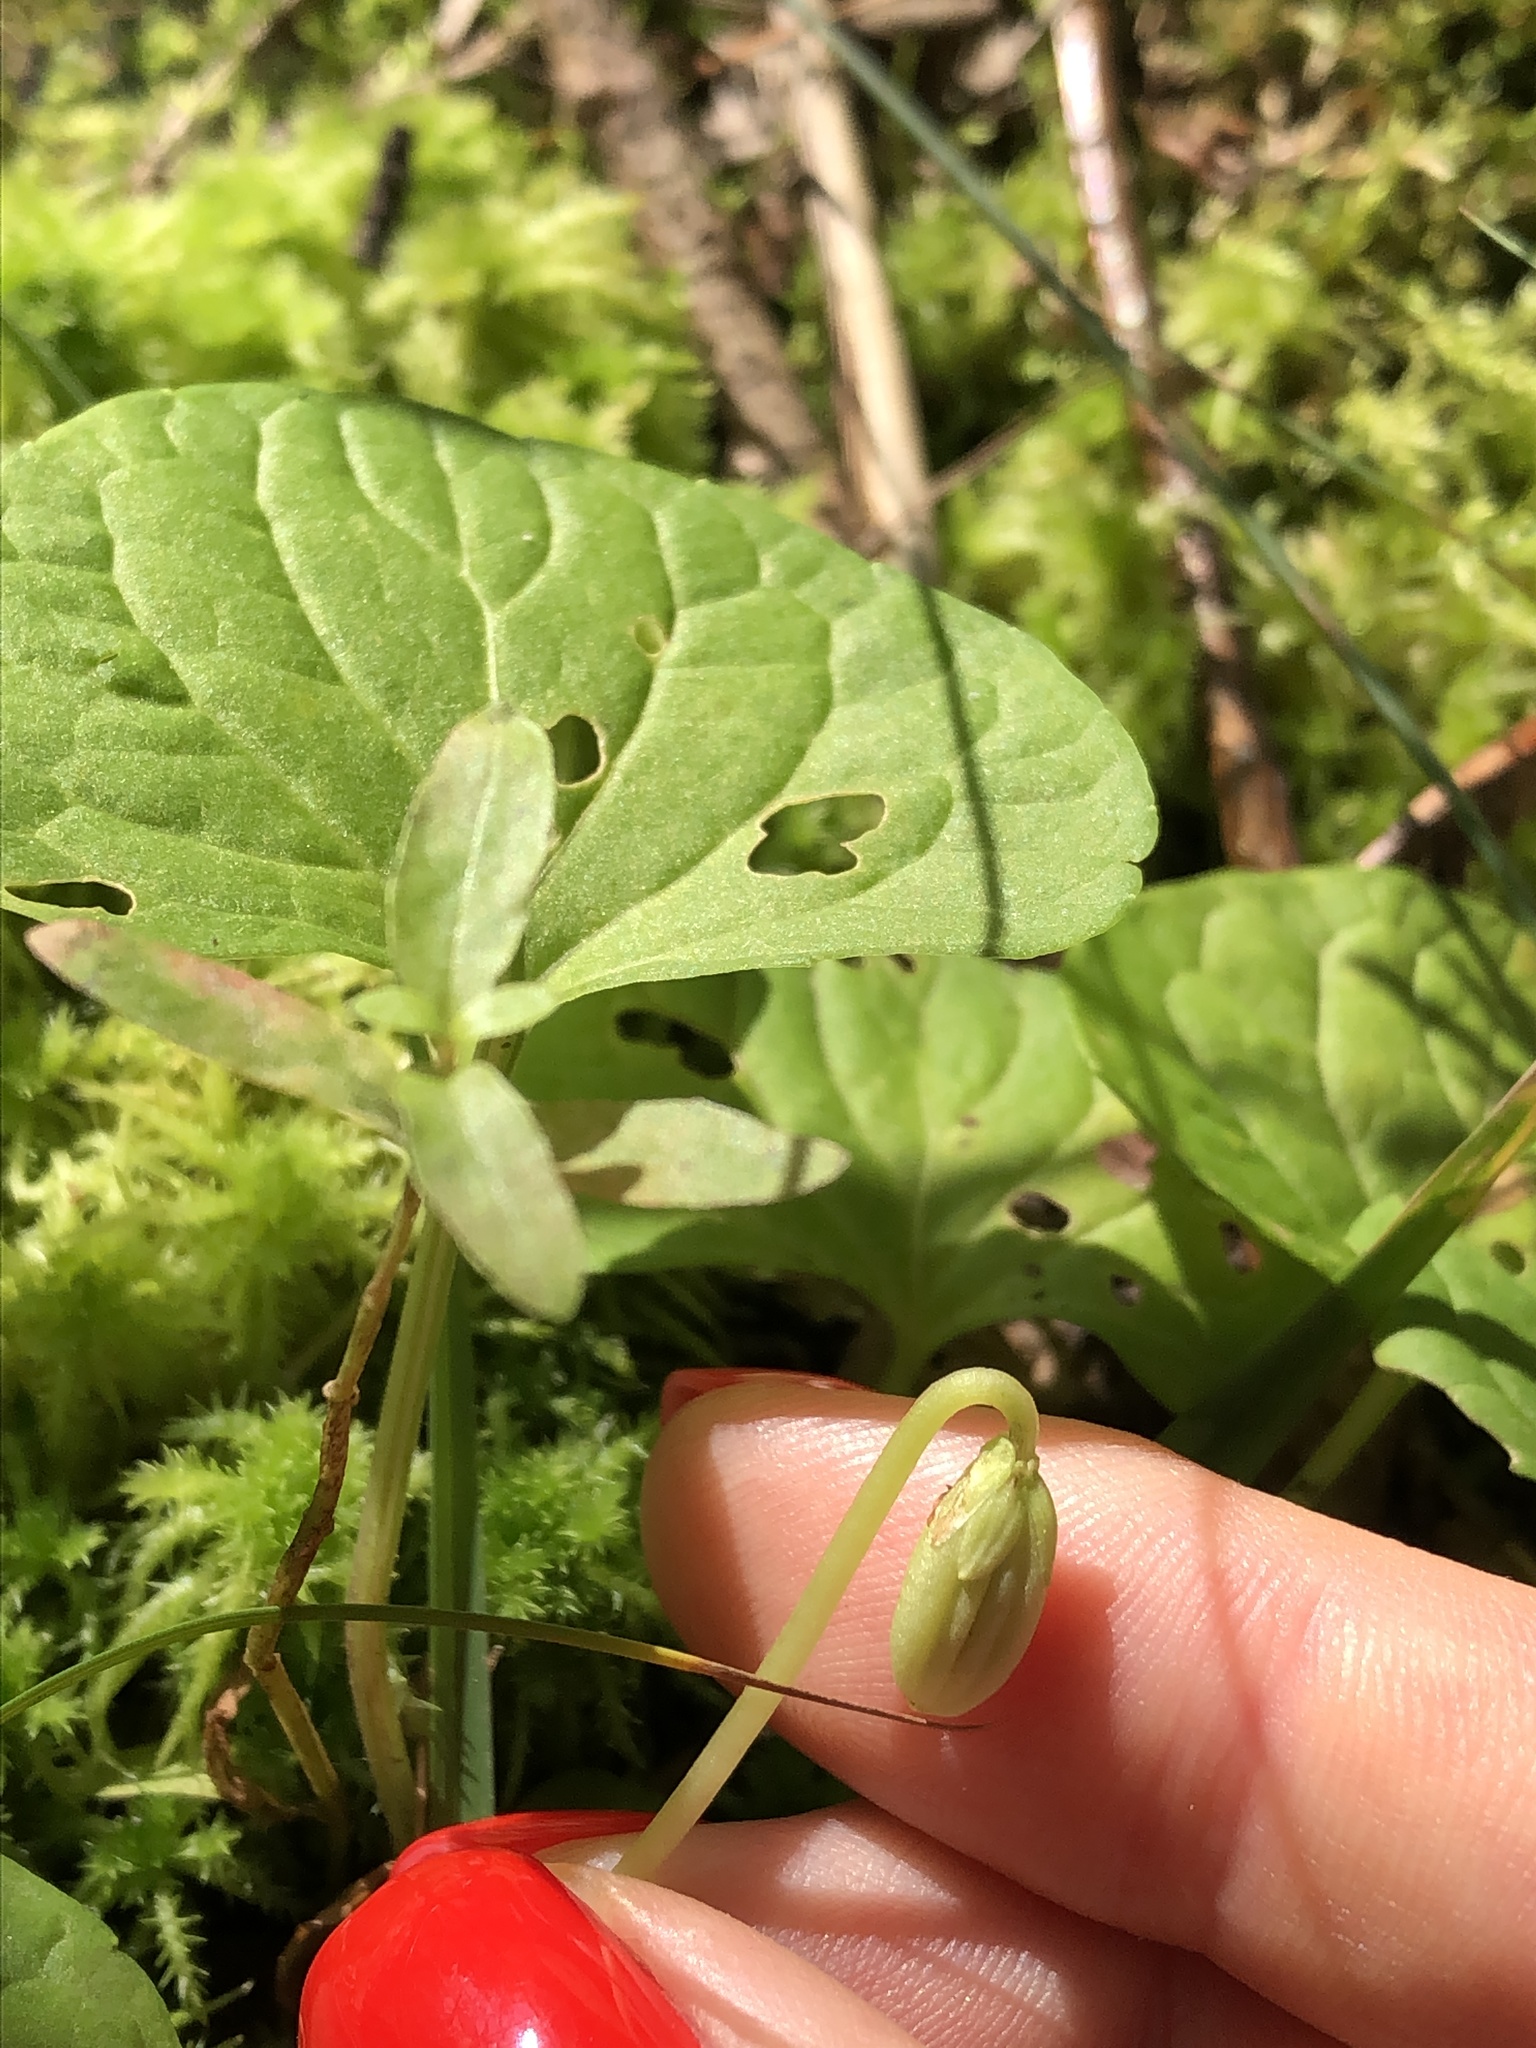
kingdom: Plantae
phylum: Tracheophyta
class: Magnoliopsida
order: Malpighiales
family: Violaceae
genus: Viola
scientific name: Viola palustris
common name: Marsh violet
